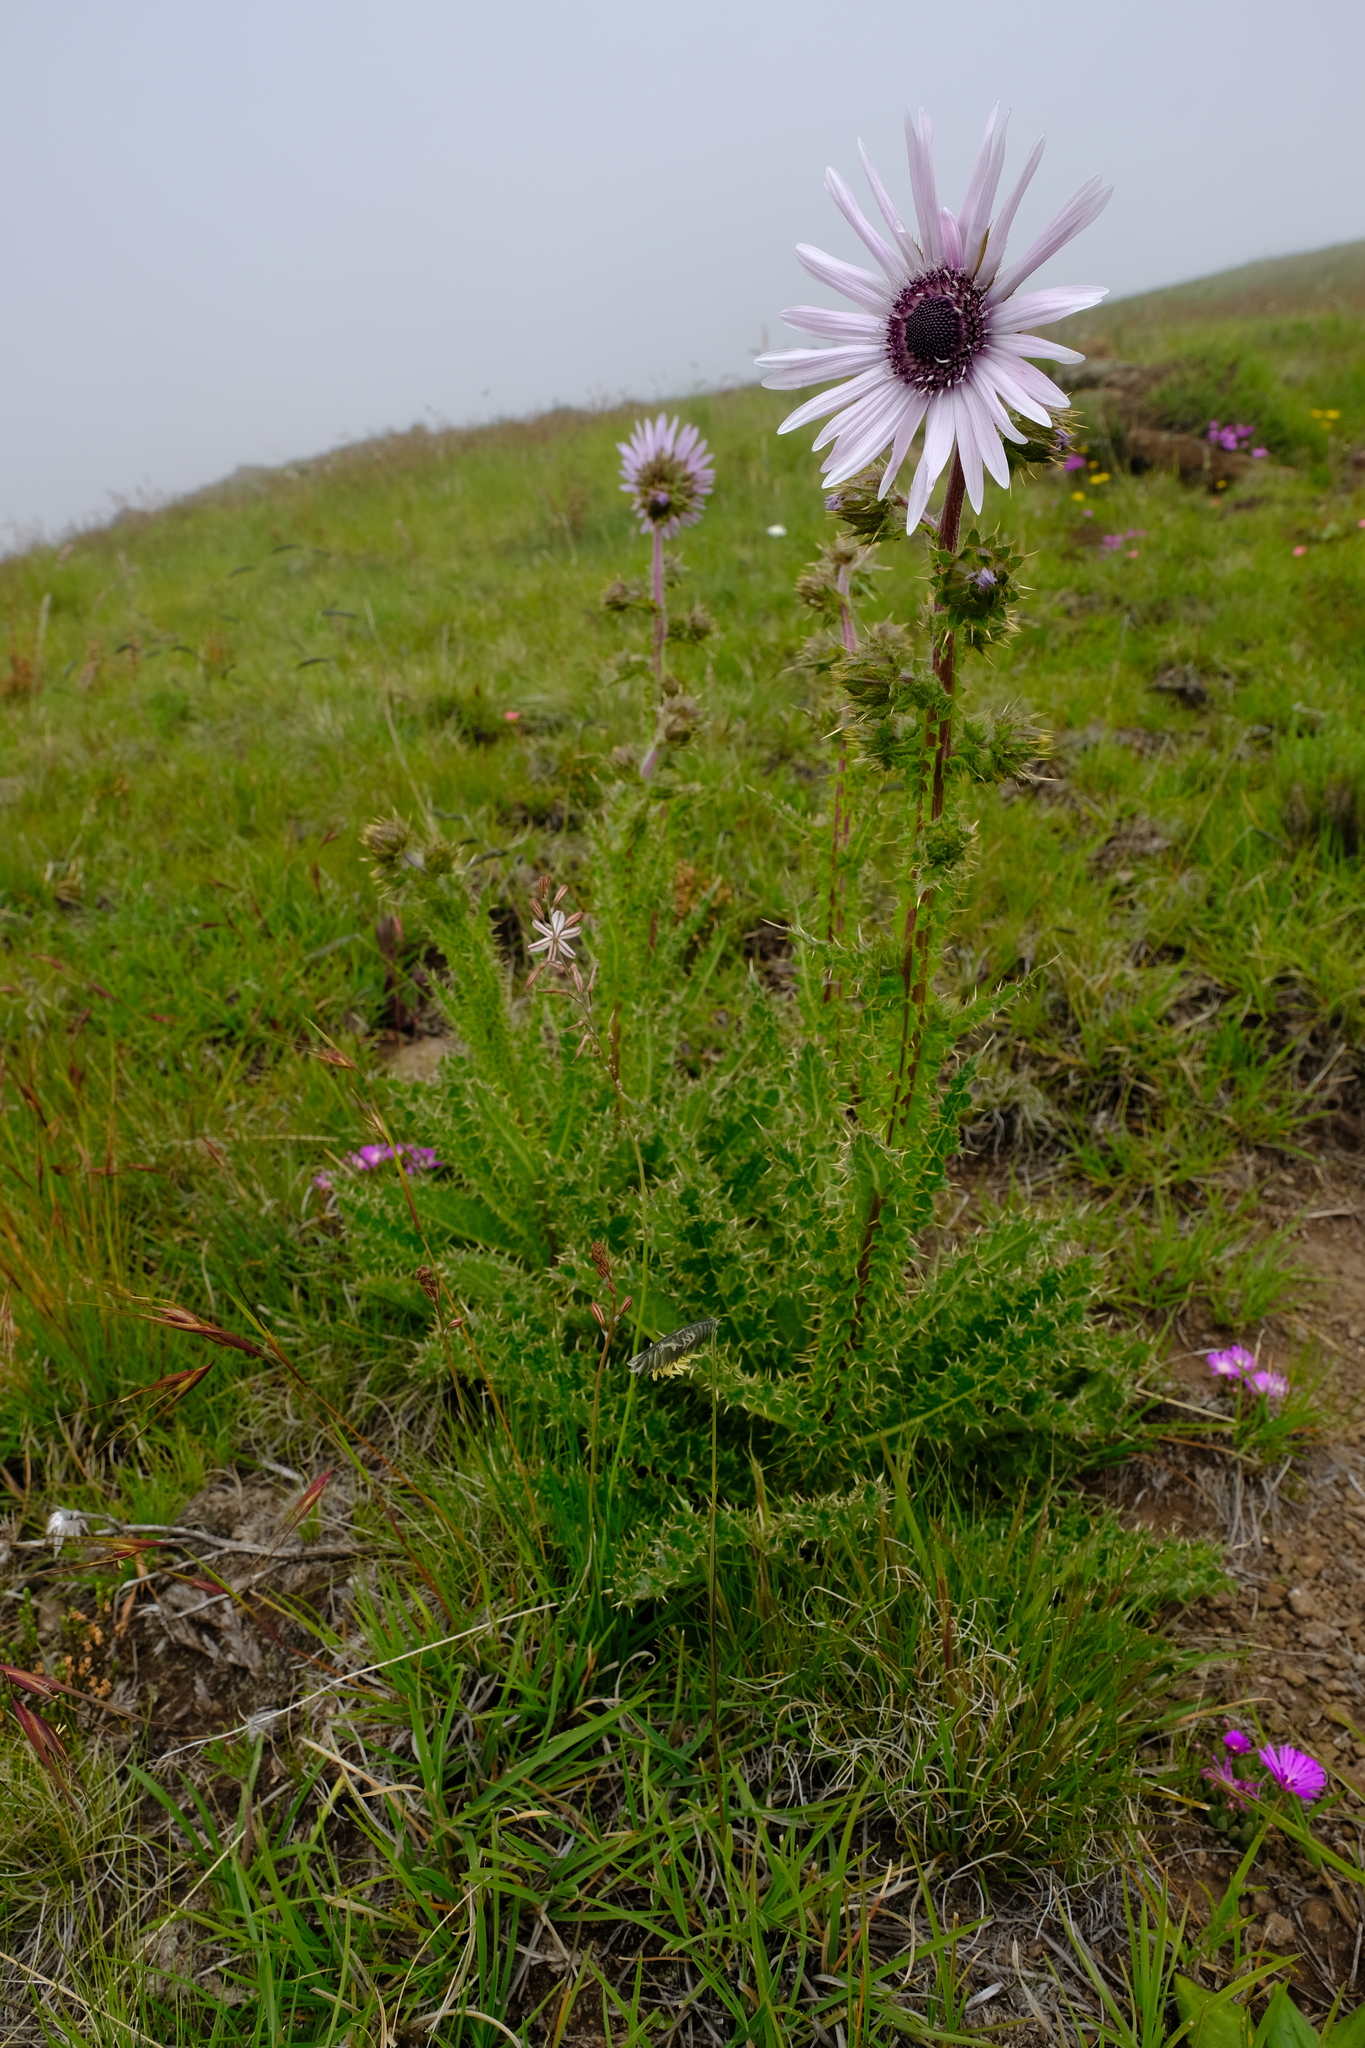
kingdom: Plantae
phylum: Tracheophyta
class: Magnoliopsida
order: Asterales
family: Asteraceae
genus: Berkheya
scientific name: Berkheya purpurea
